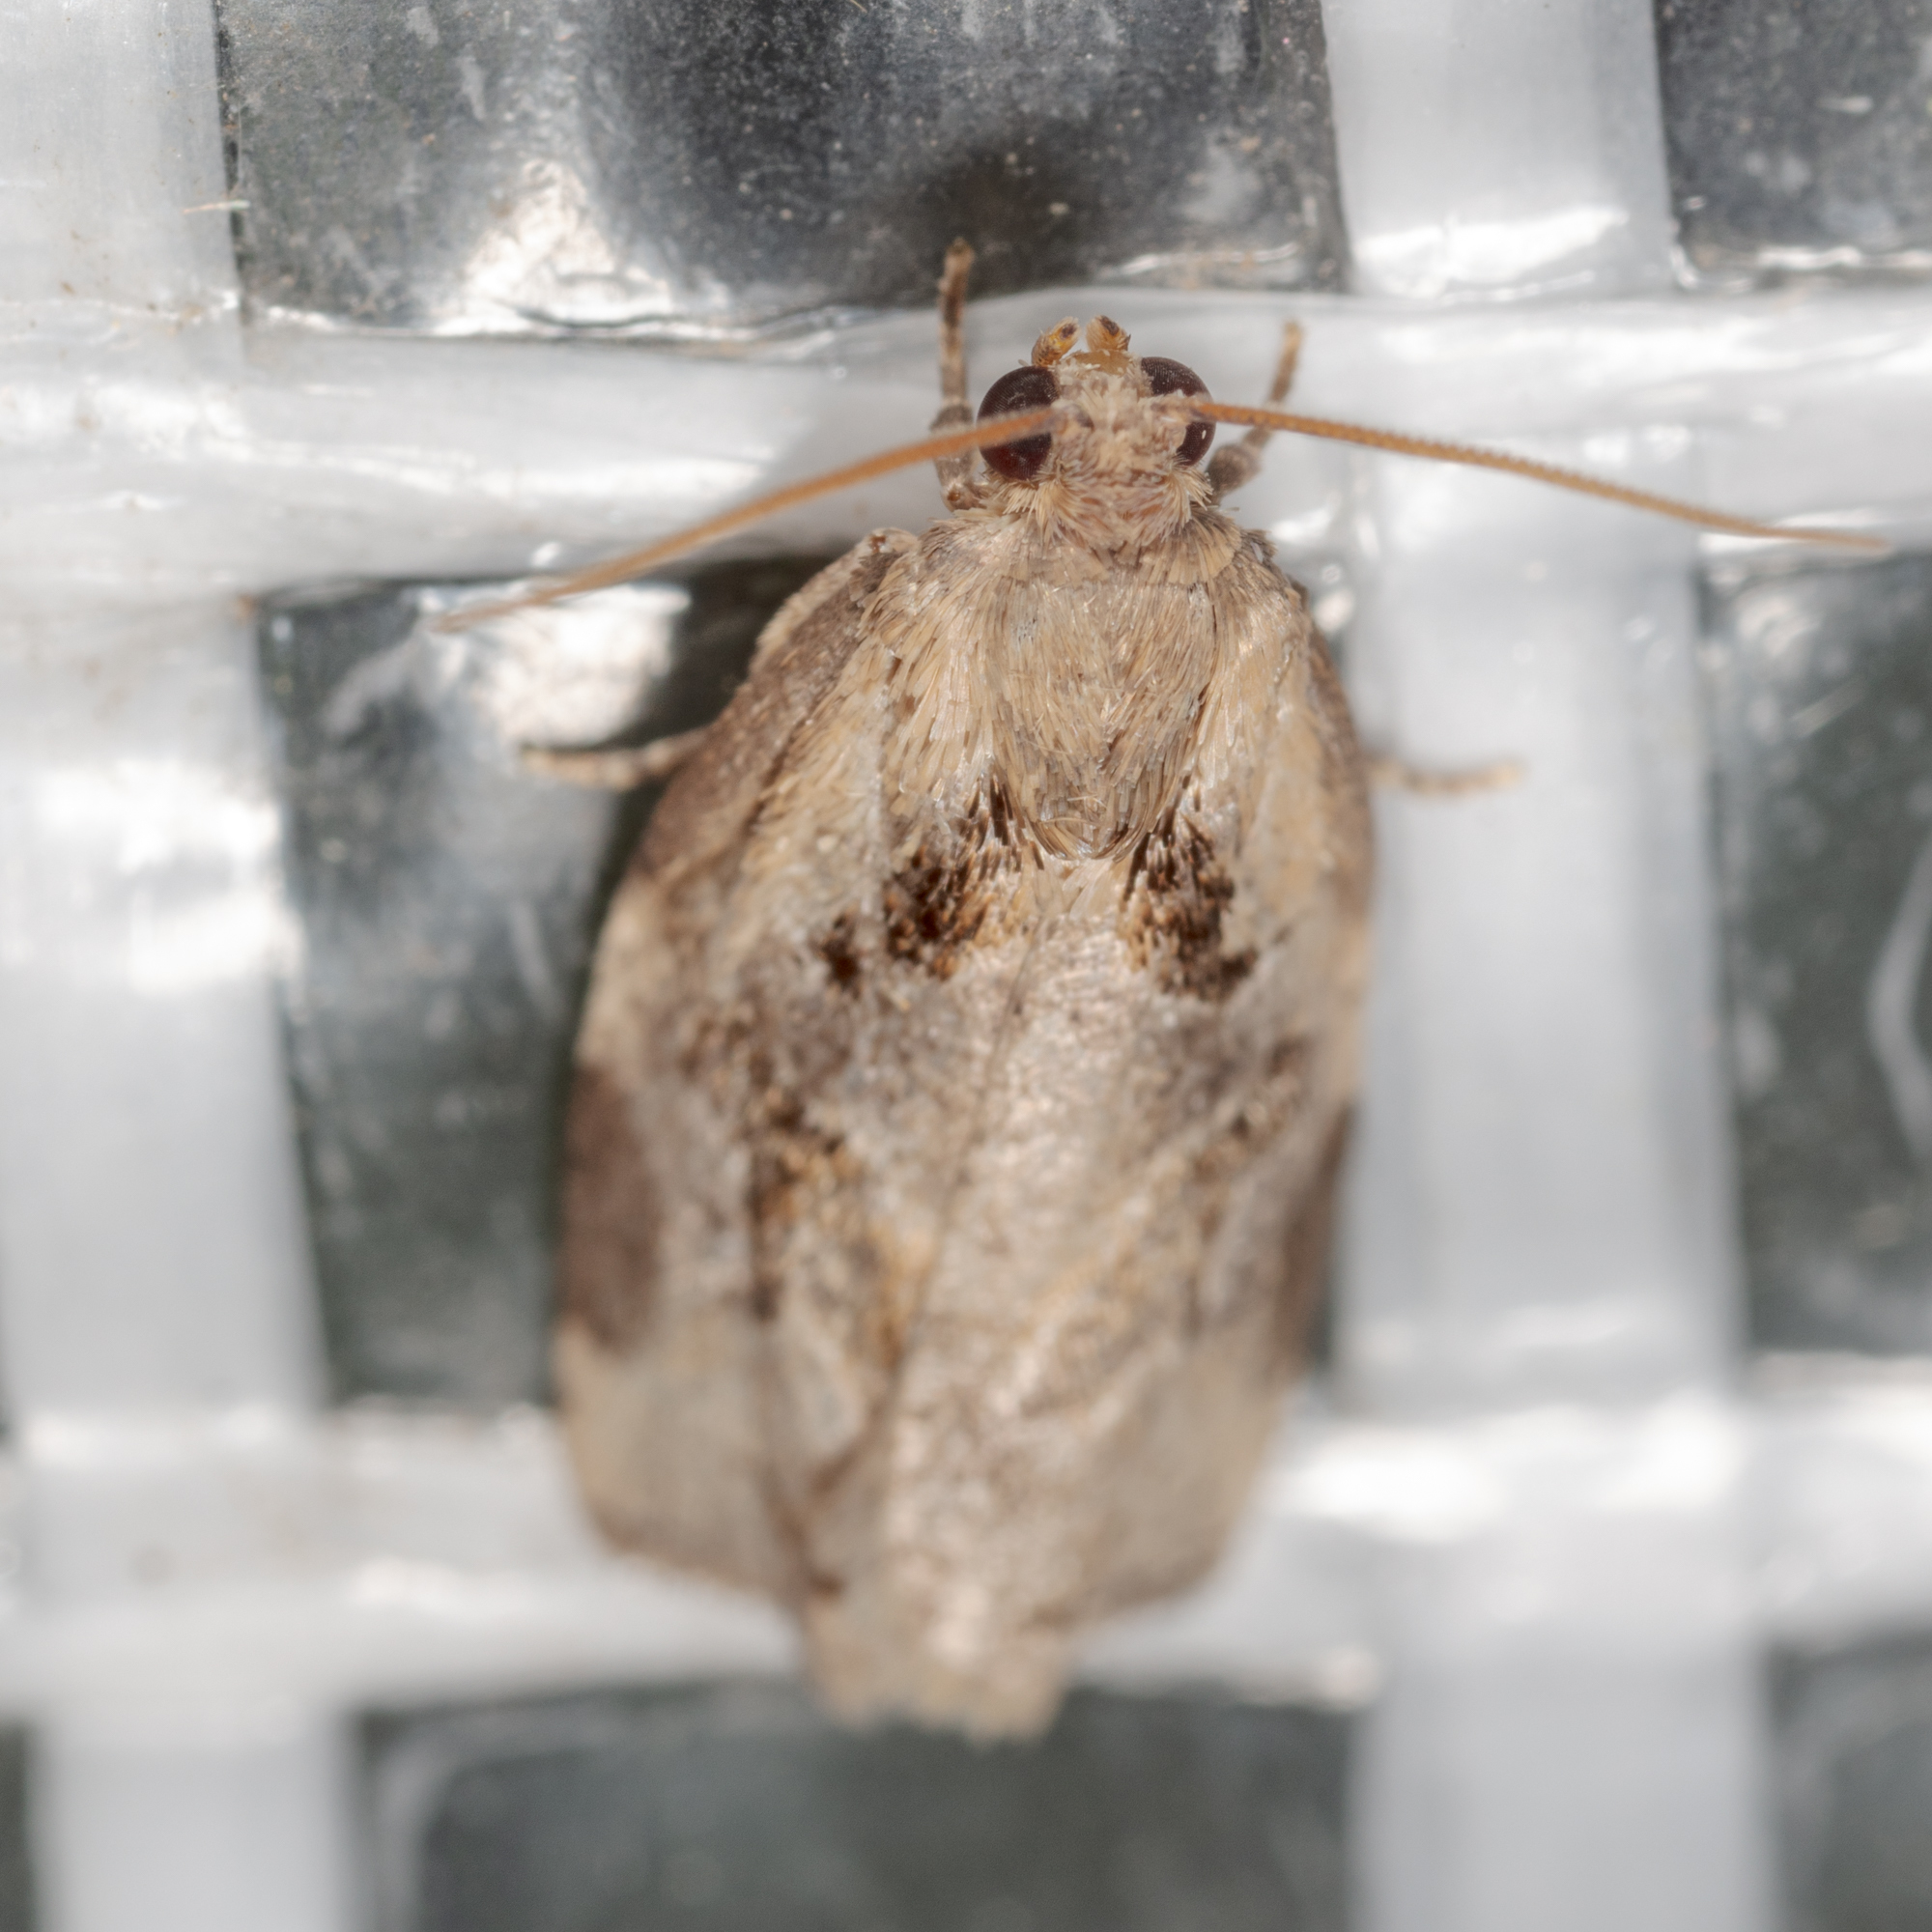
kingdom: Animalia
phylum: Arthropoda
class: Insecta
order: Lepidoptera
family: Tortricidae
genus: Archips
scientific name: Archips grisea
